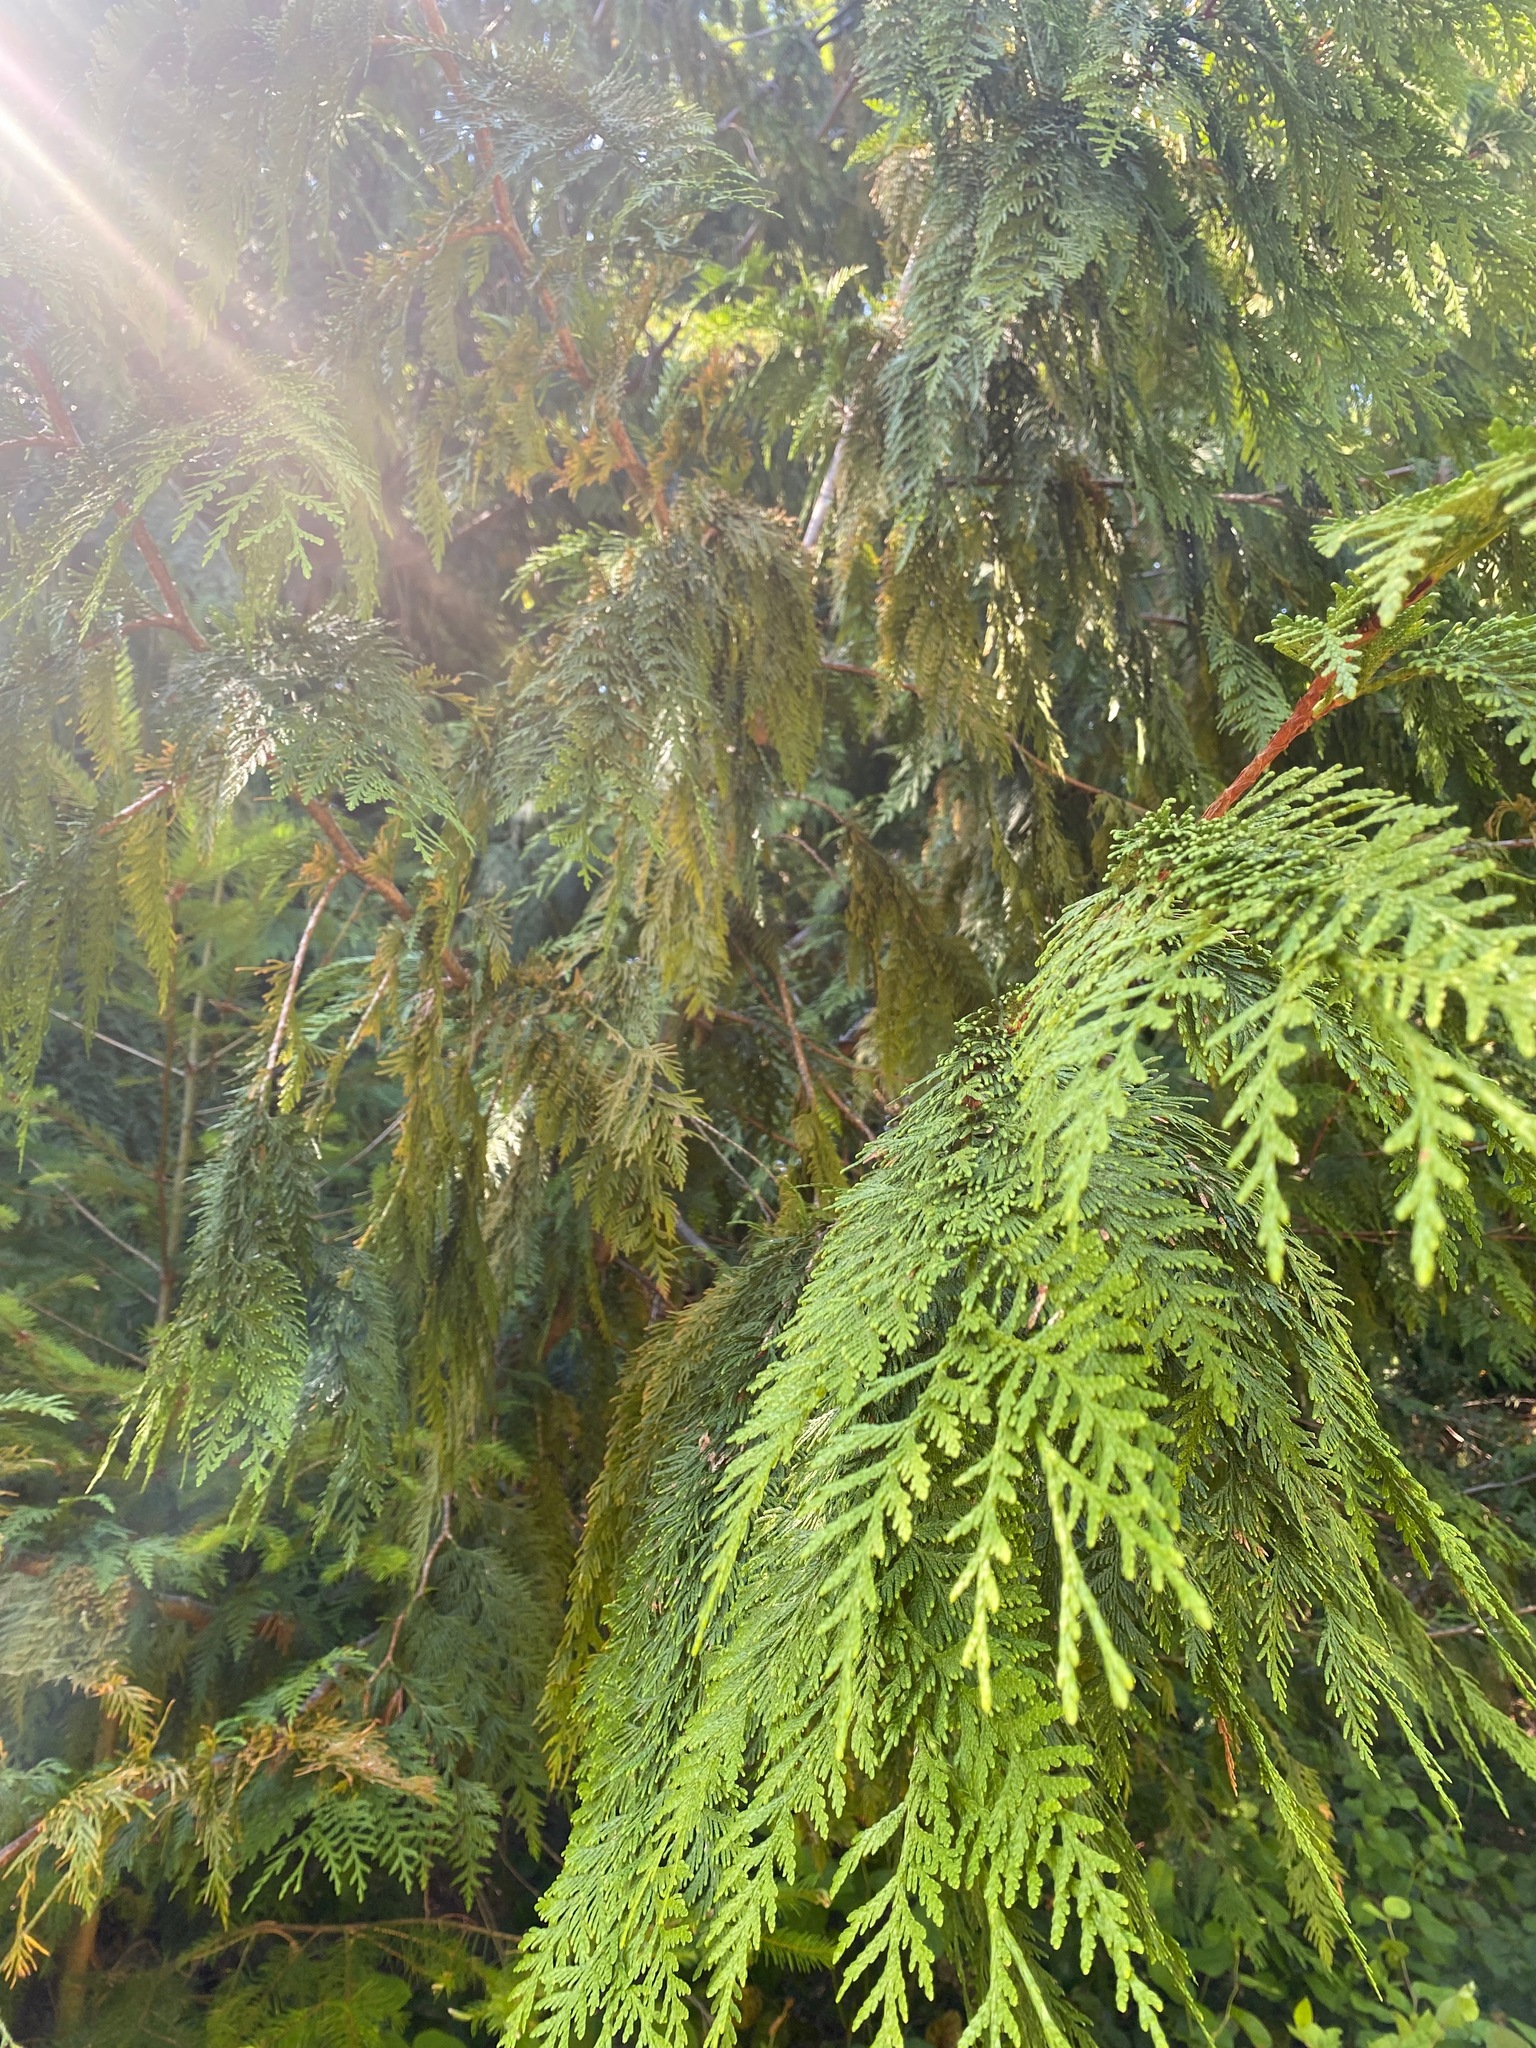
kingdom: Plantae
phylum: Tracheophyta
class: Pinopsida
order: Pinales
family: Cupressaceae
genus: Thuja
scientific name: Thuja plicata
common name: Western red-cedar
